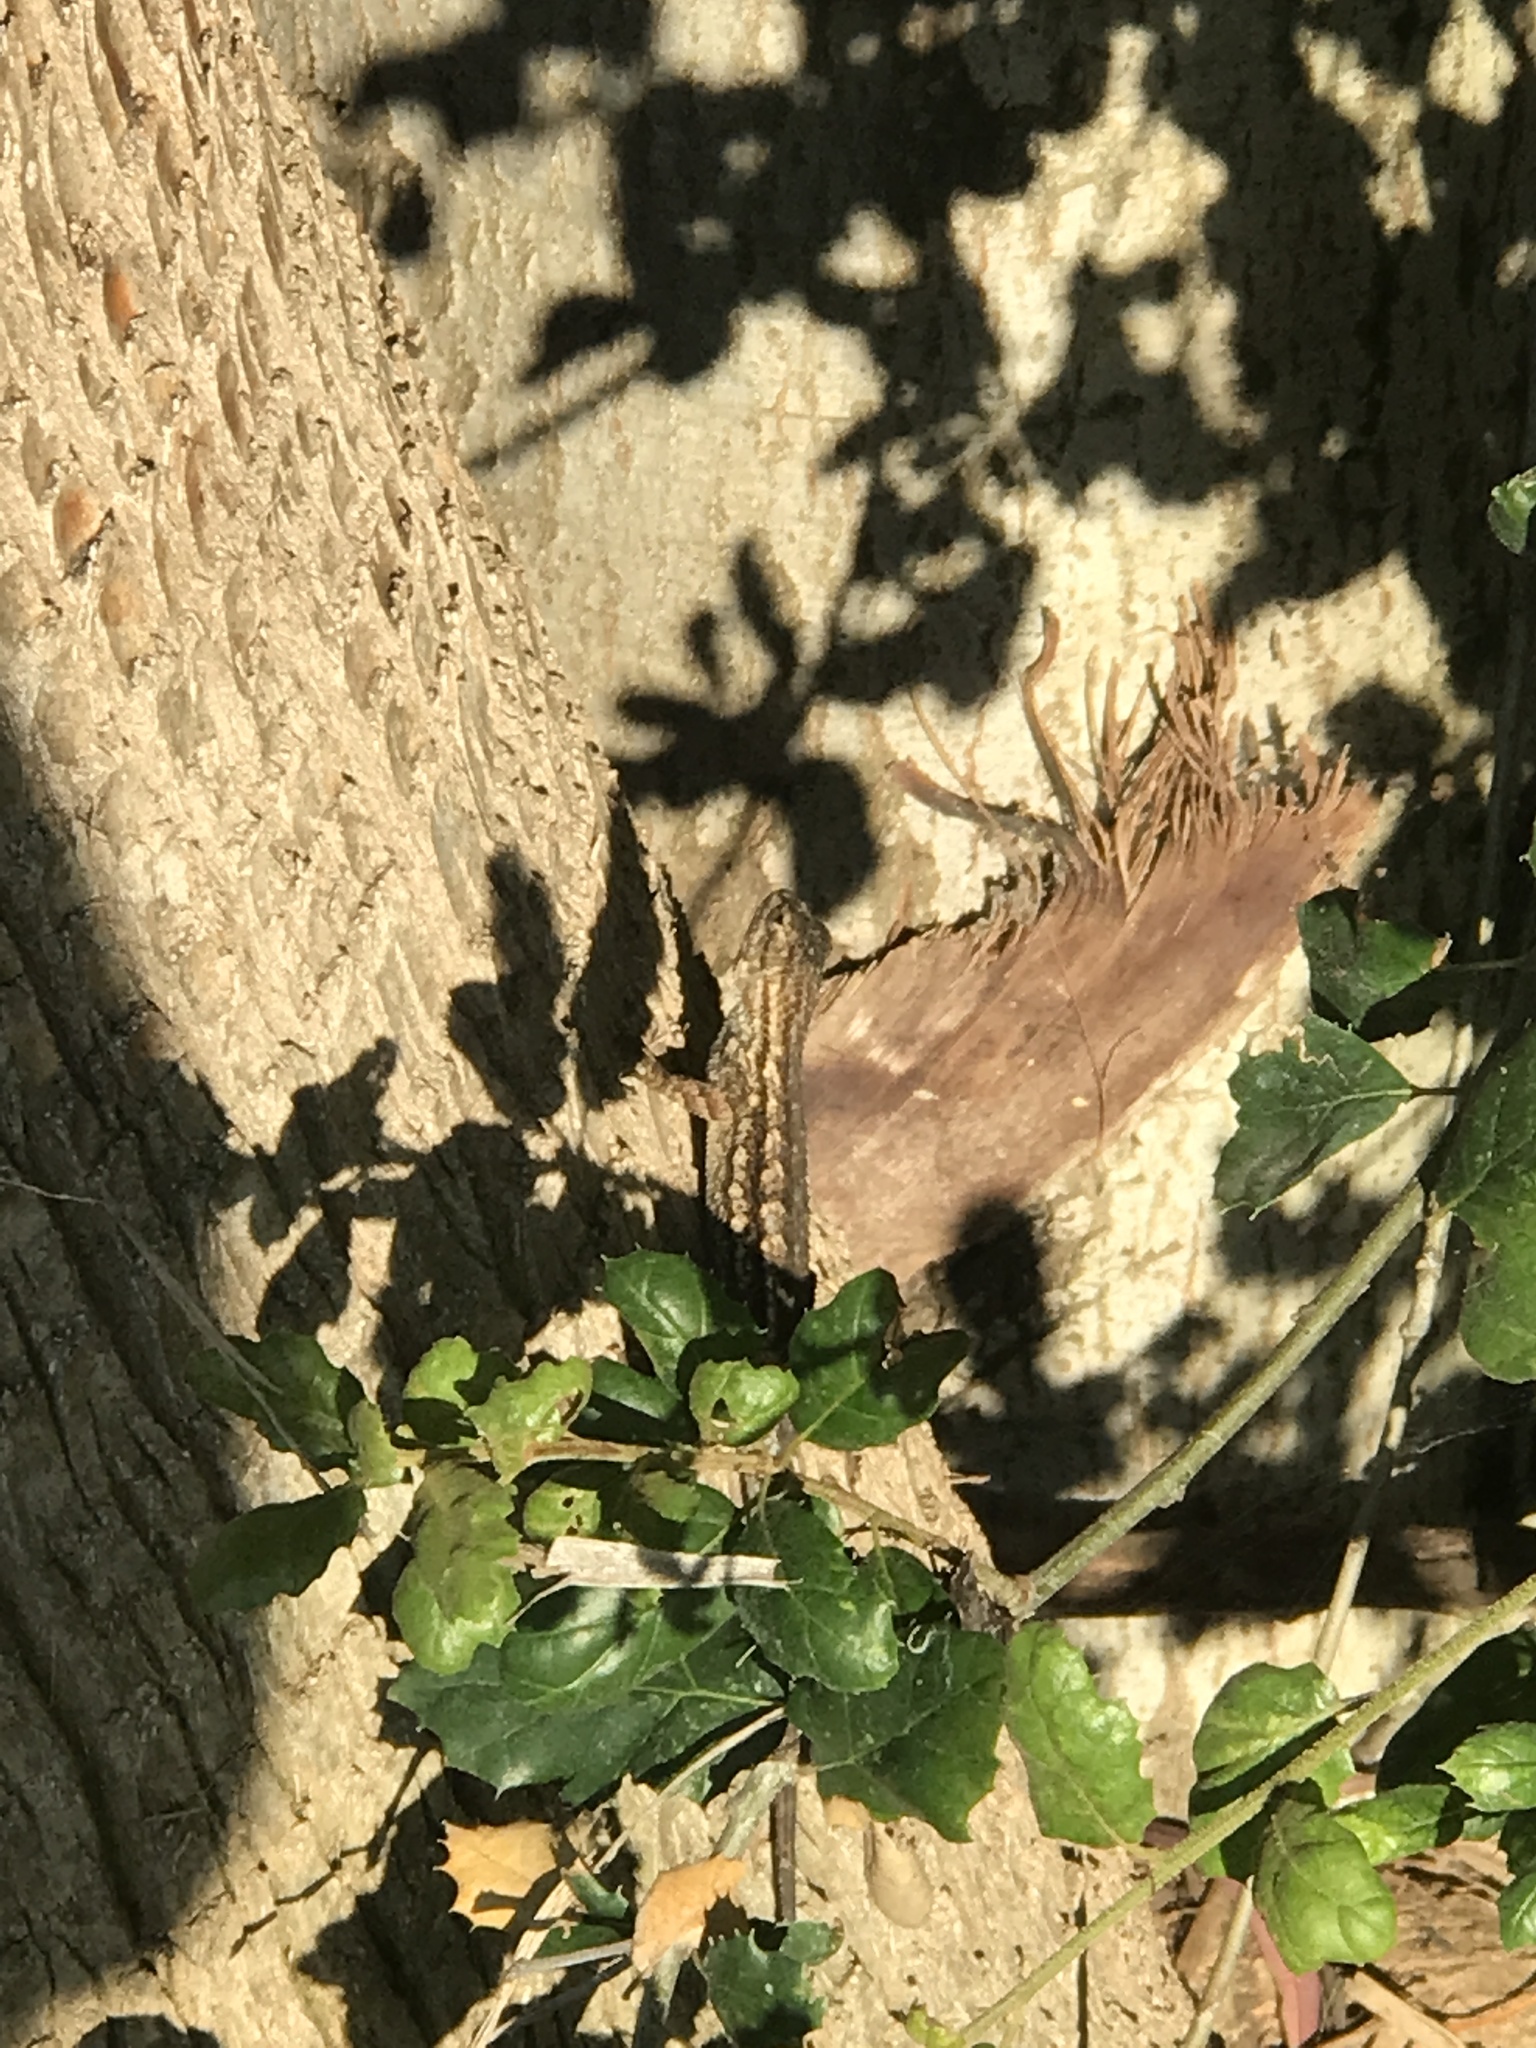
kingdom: Animalia
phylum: Chordata
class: Squamata
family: Phrynosomatidae
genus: Sceloporus
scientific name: Sceloporus occidentalis
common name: Western fence lizard
